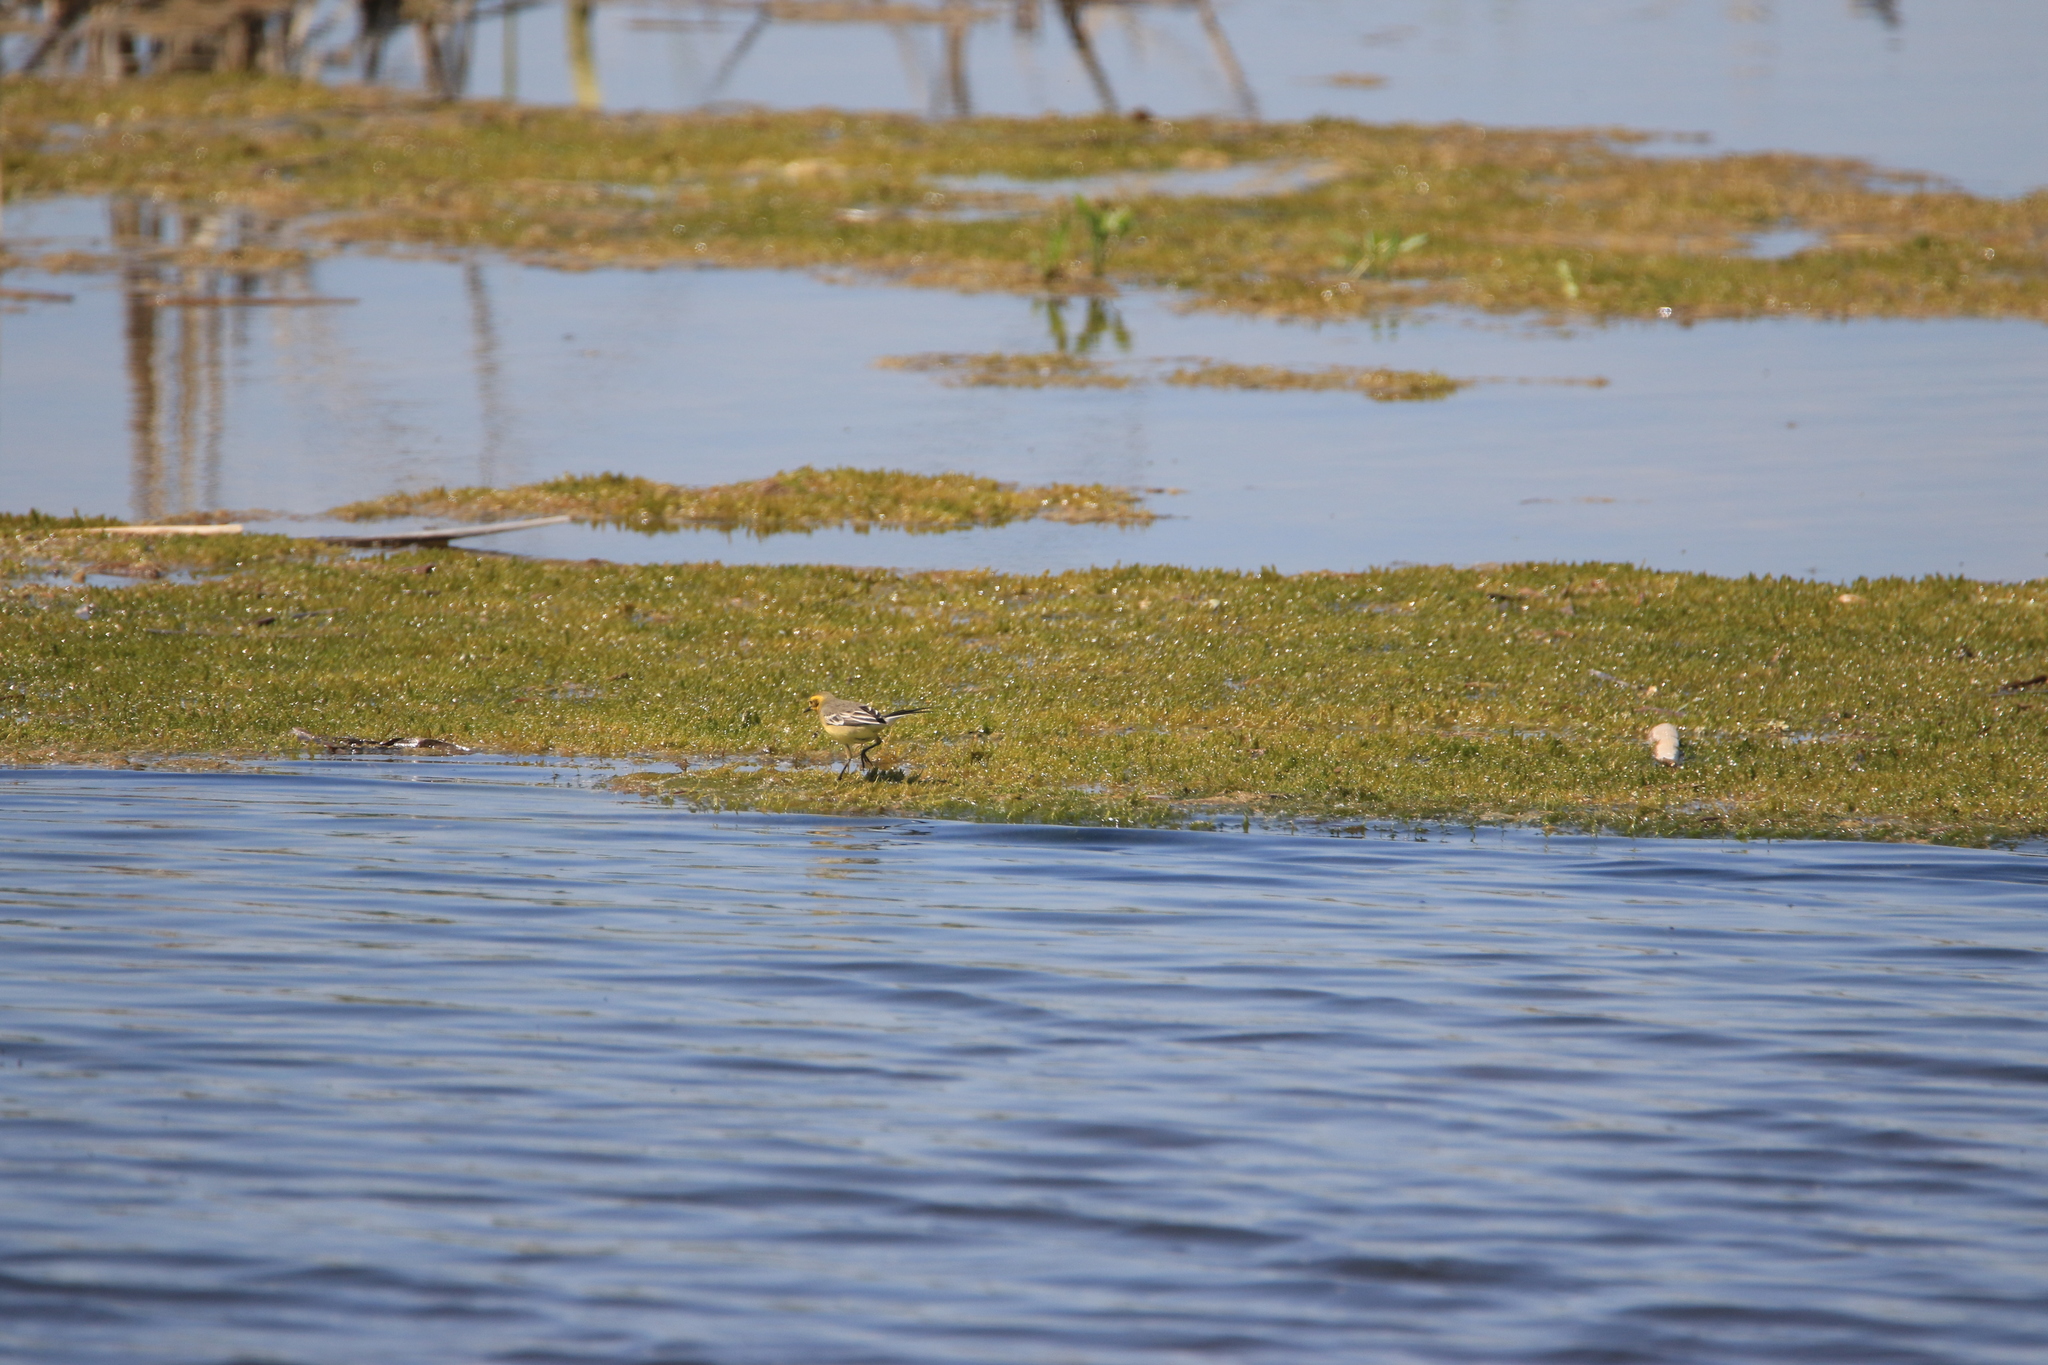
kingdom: Animalia
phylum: Chordata
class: Aves
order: Passeriformes
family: Motacillidae
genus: Motacilla
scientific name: Motacilla flava
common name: Western yellow wagtail
